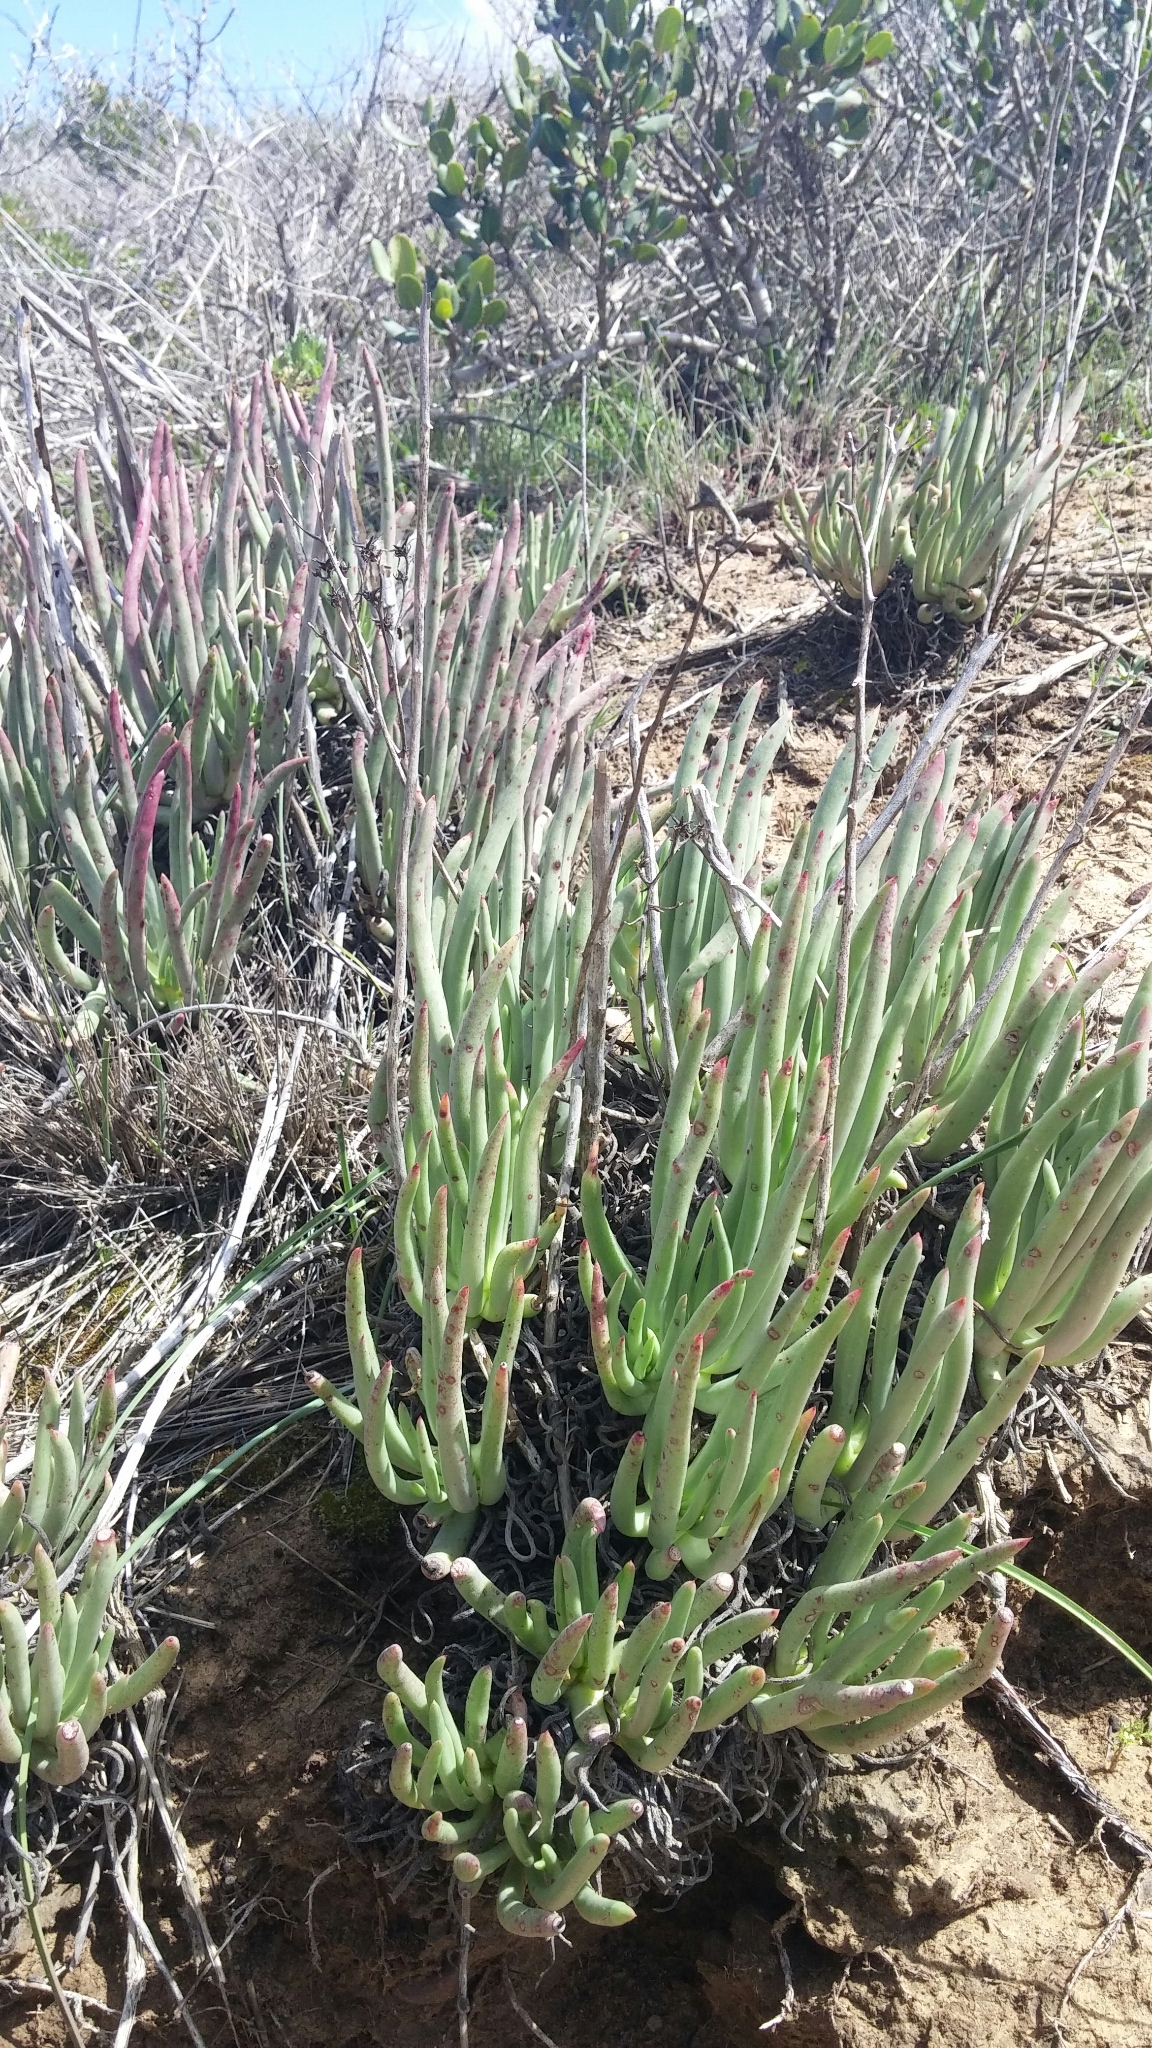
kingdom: Plantae
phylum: Tracheophyta
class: Magnoliopsida
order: Saxifragales
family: Crassulaceae
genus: Dudleya
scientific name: Dudleya edulis
